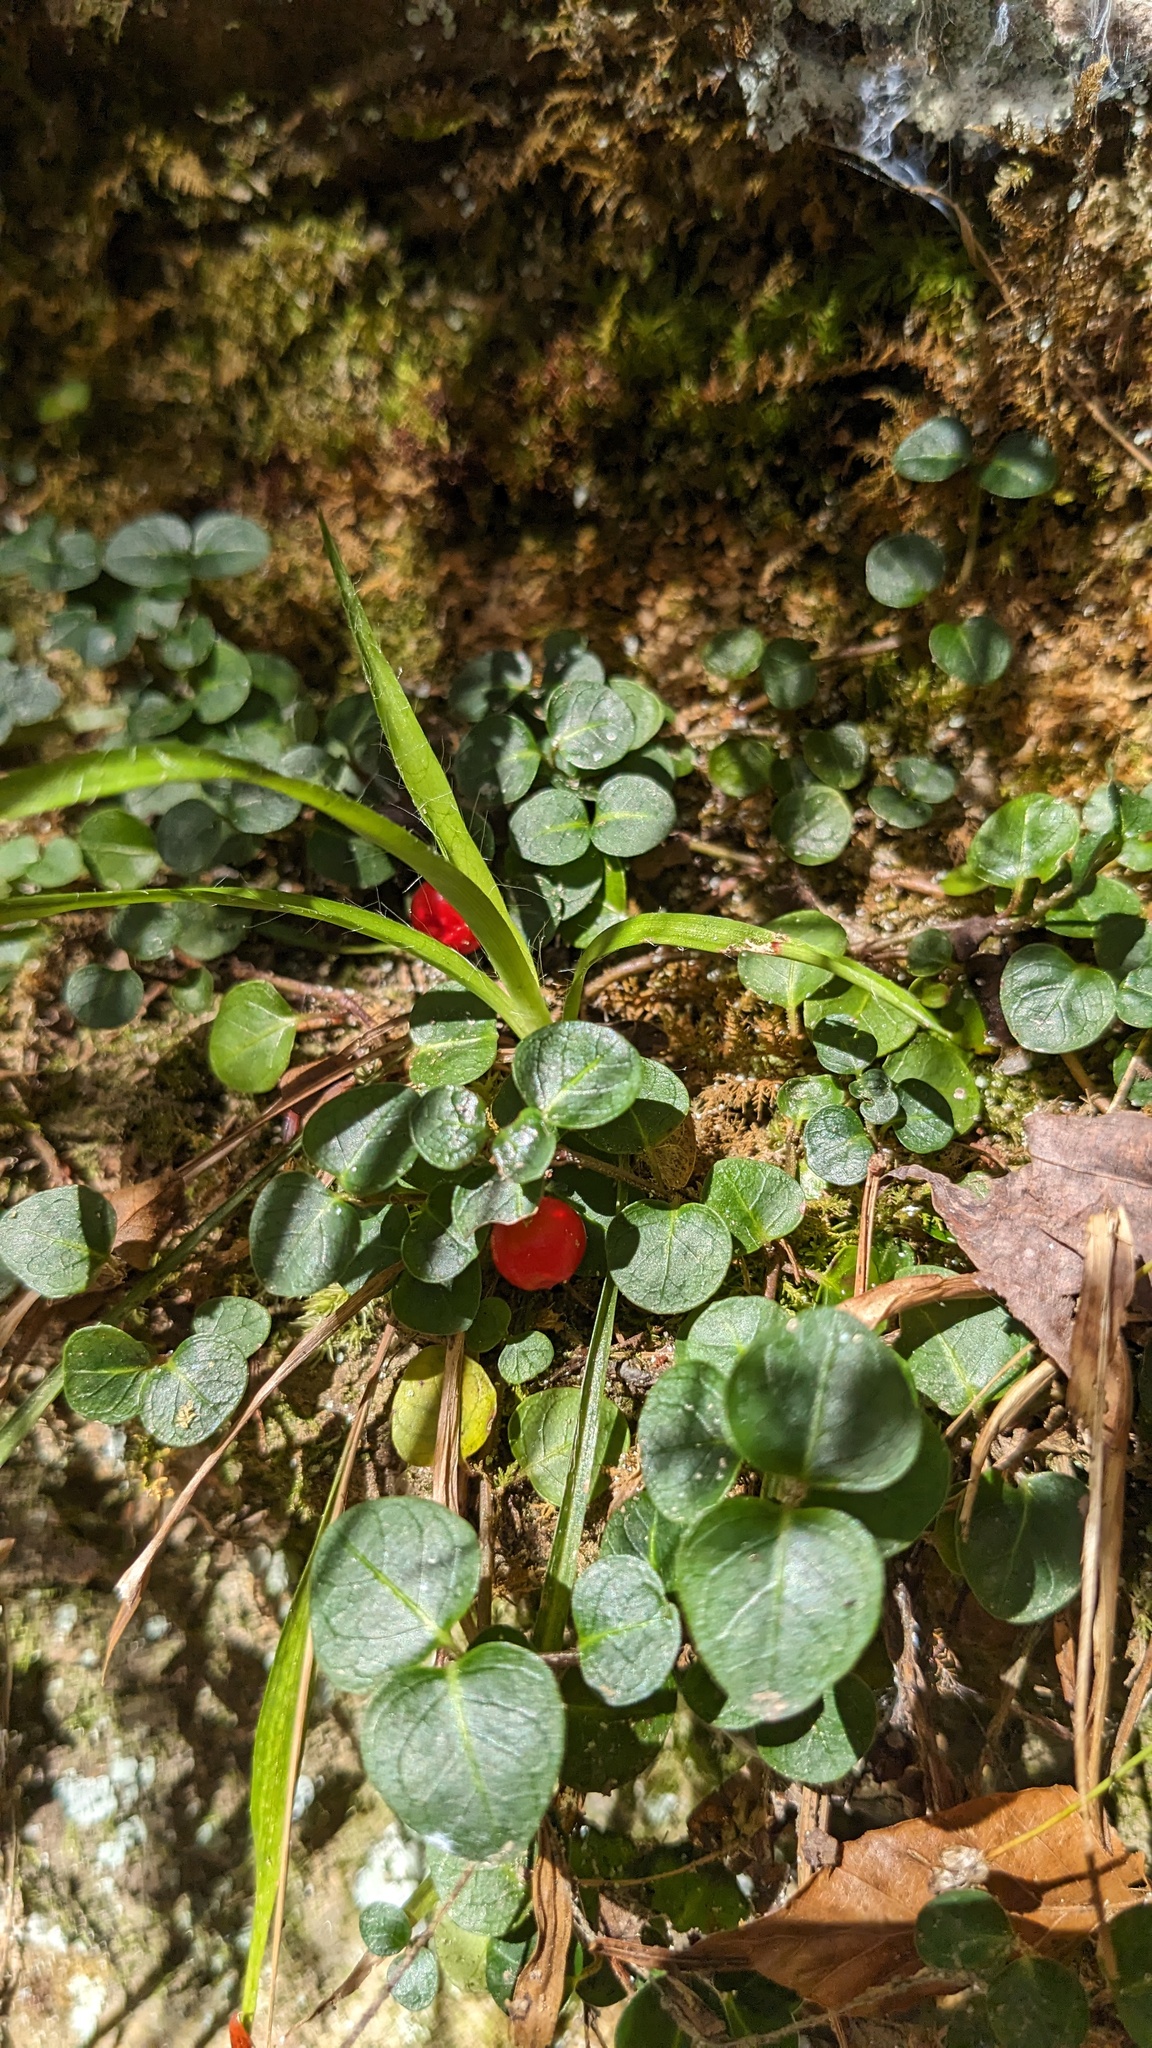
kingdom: Plantae
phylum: Tracheophyta
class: Magnoliopsida
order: Gentianales
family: Rubiaceae
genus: Mitchella
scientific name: Mitchella repens
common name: Partridge-berry
